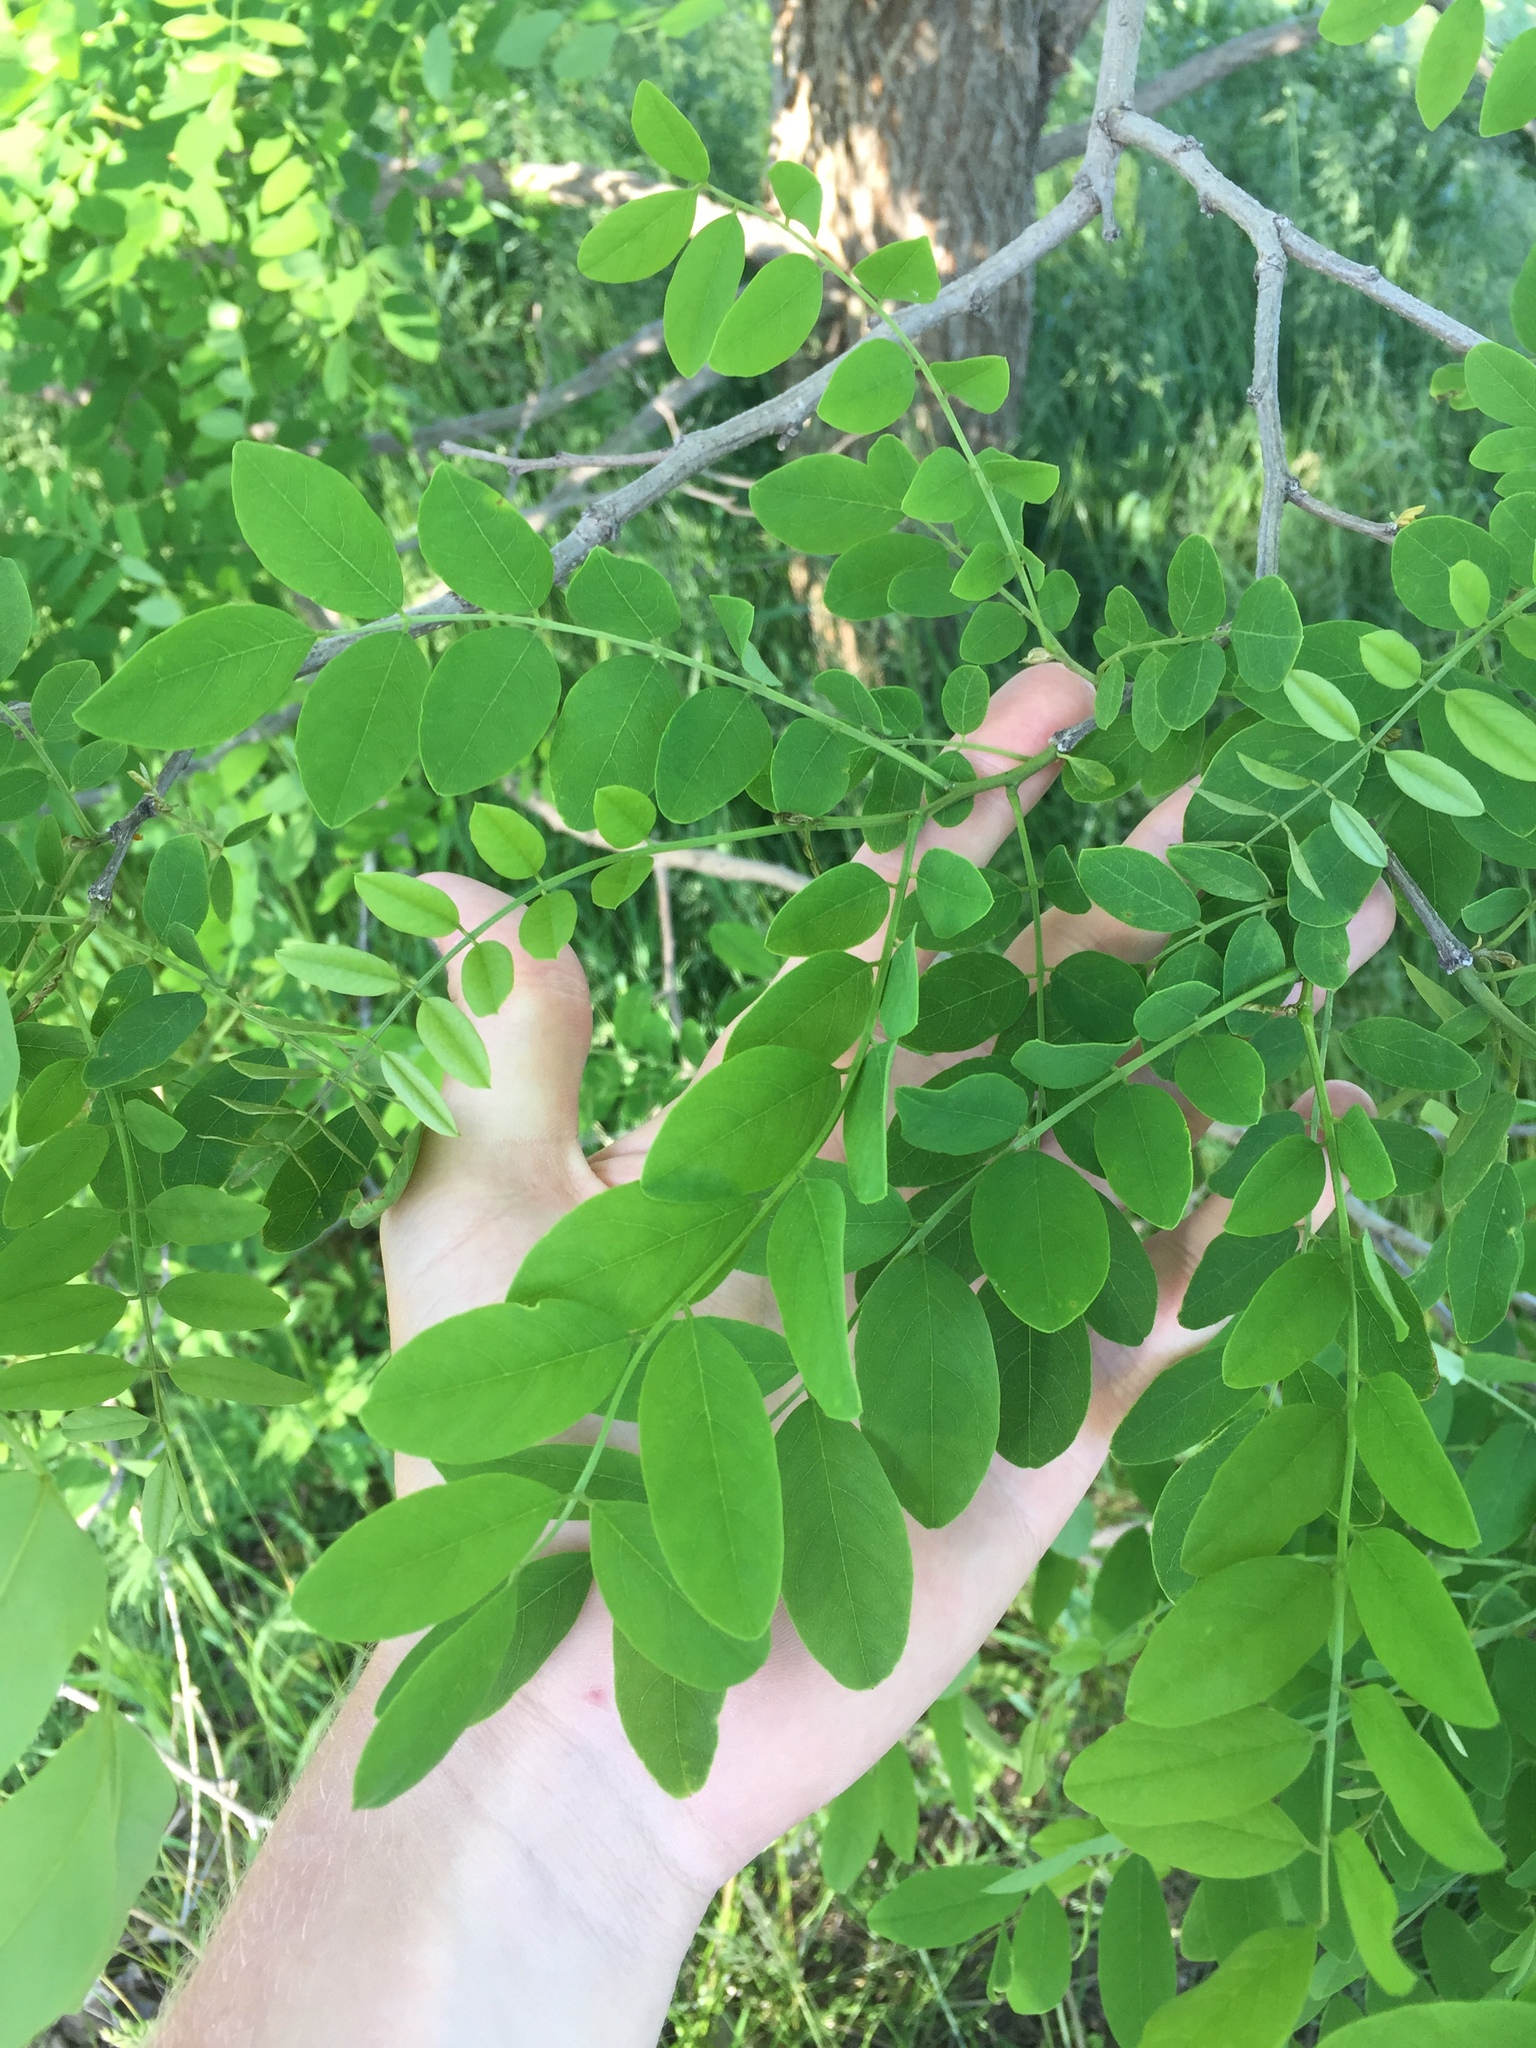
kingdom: Plantae
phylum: Tracheophyta
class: Magnoliopsida
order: Fabales
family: Fabaceae
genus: Robinia
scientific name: Robinia pseudoacacia
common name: Black locust
